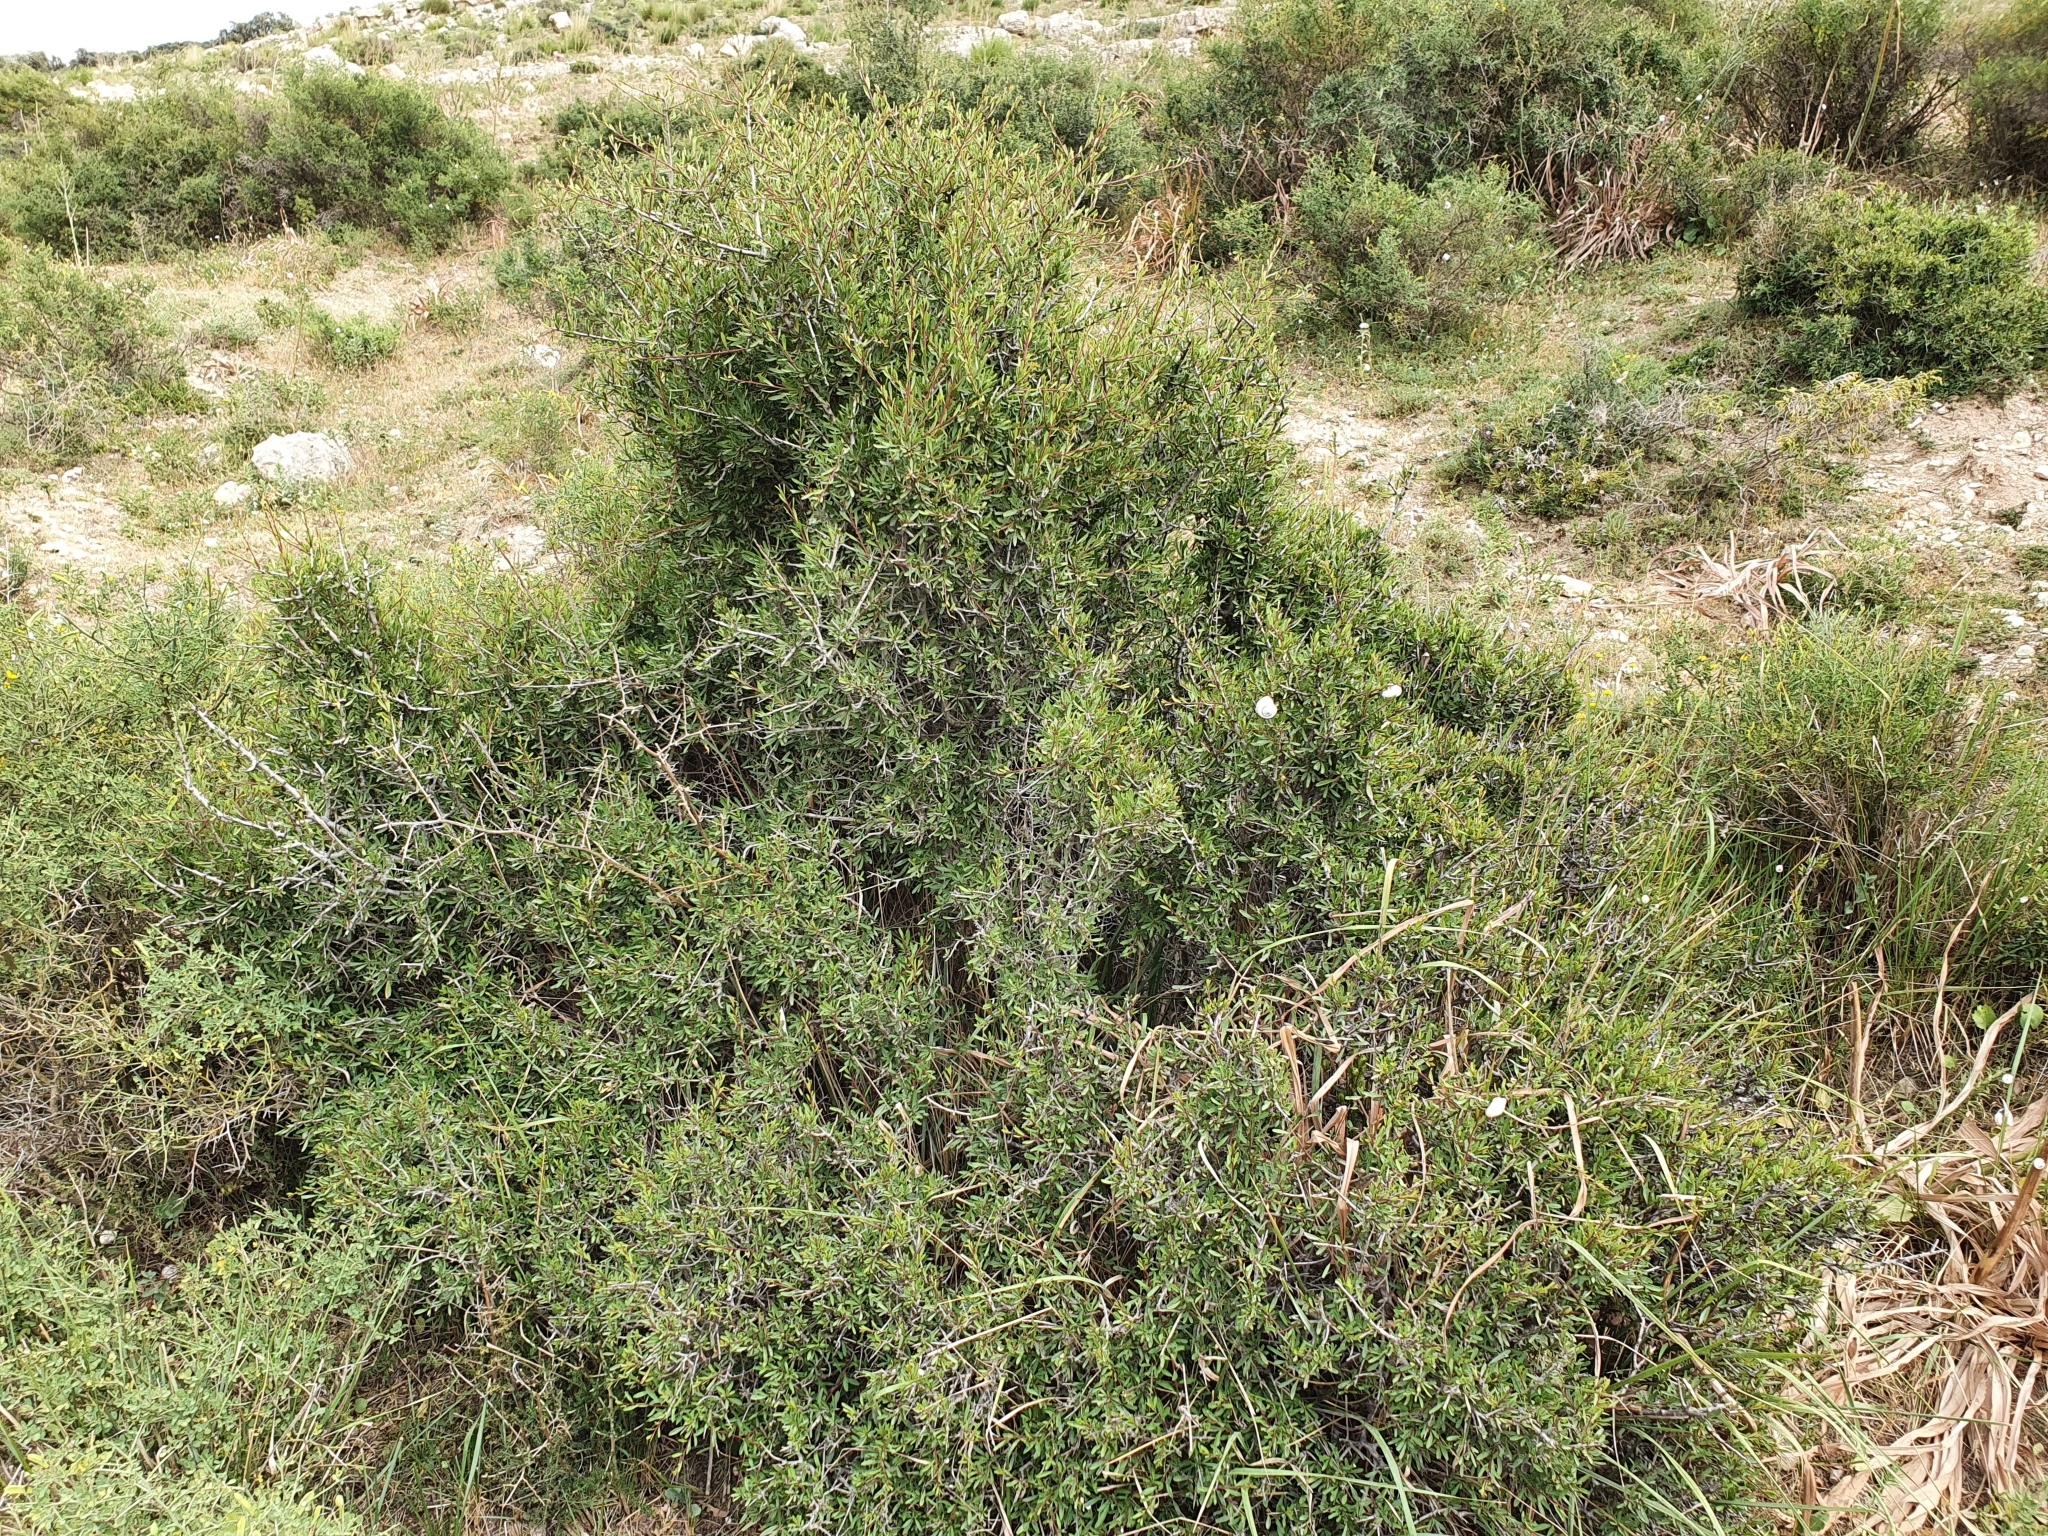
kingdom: Plantae
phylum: Tracheophyta
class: Magnoliopsida
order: Rosales
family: Rhamnaceae
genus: Rhamnus
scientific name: Rhamnus lycioides
